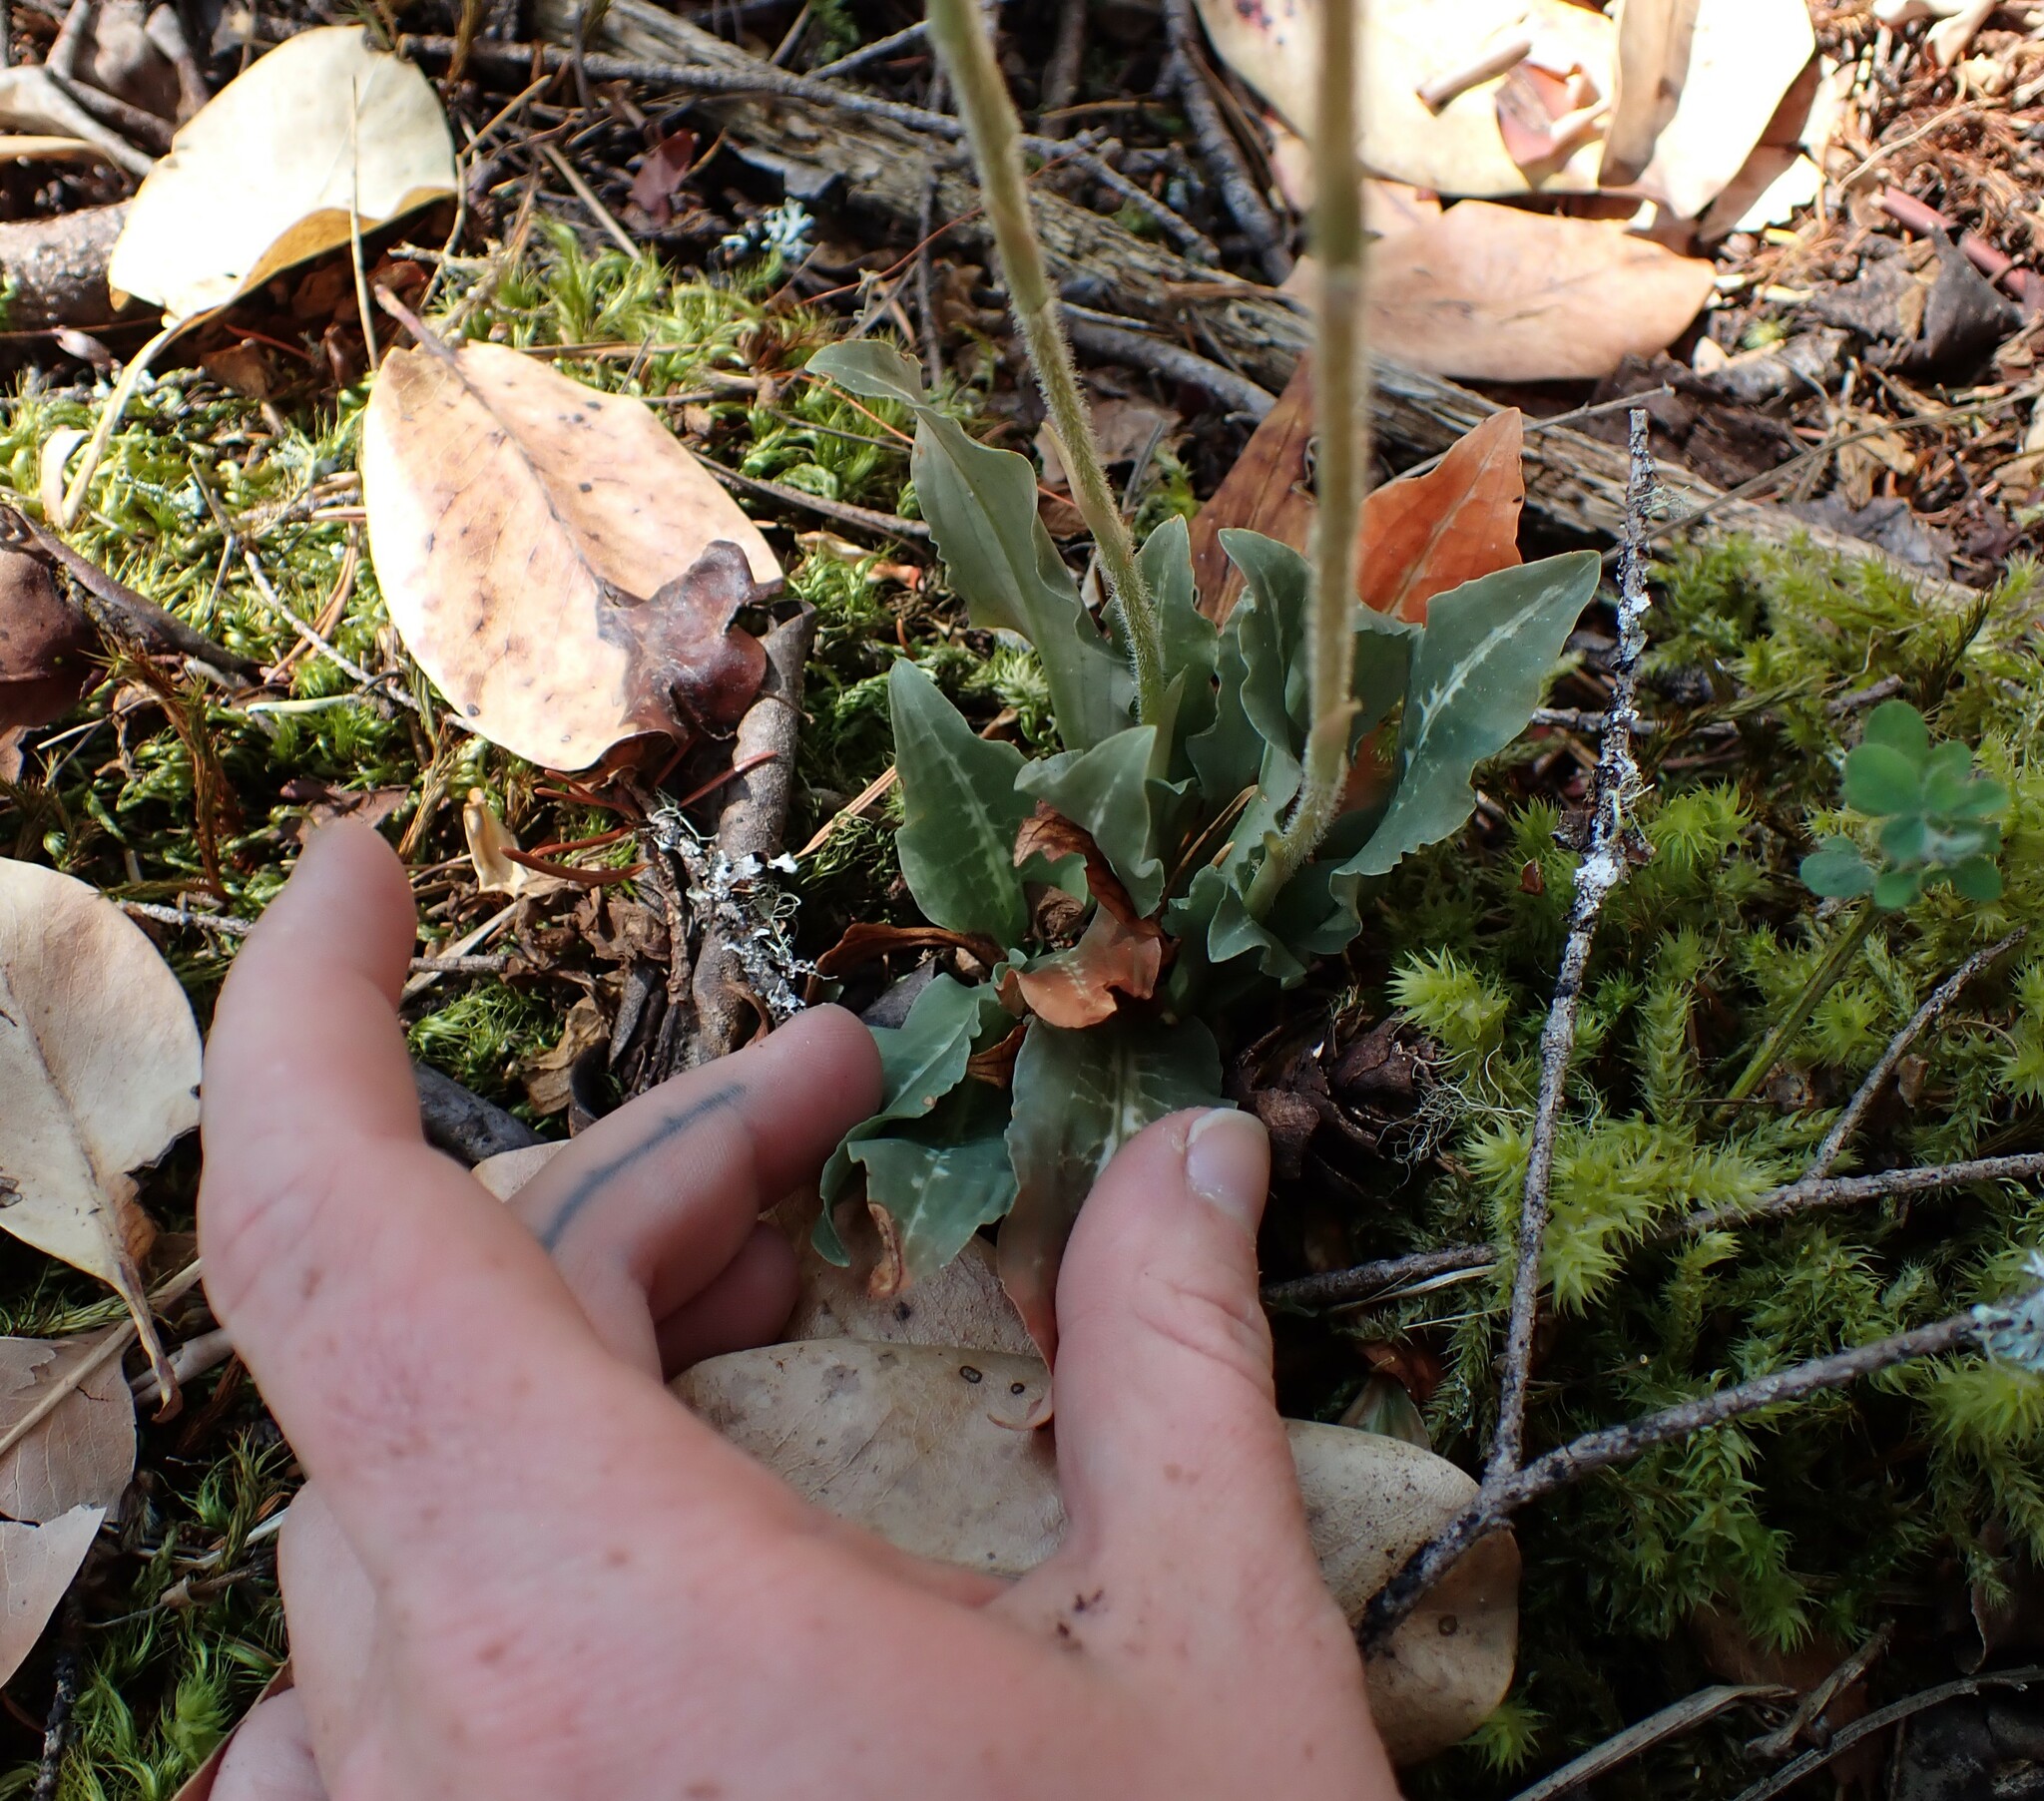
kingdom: Plantae
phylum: Tracheophyta
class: Liliopsida
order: Asparagales
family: Orchidaceae
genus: Goodyera
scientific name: Goodyera oblongifolia
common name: Giant rattlesnake-plantain
